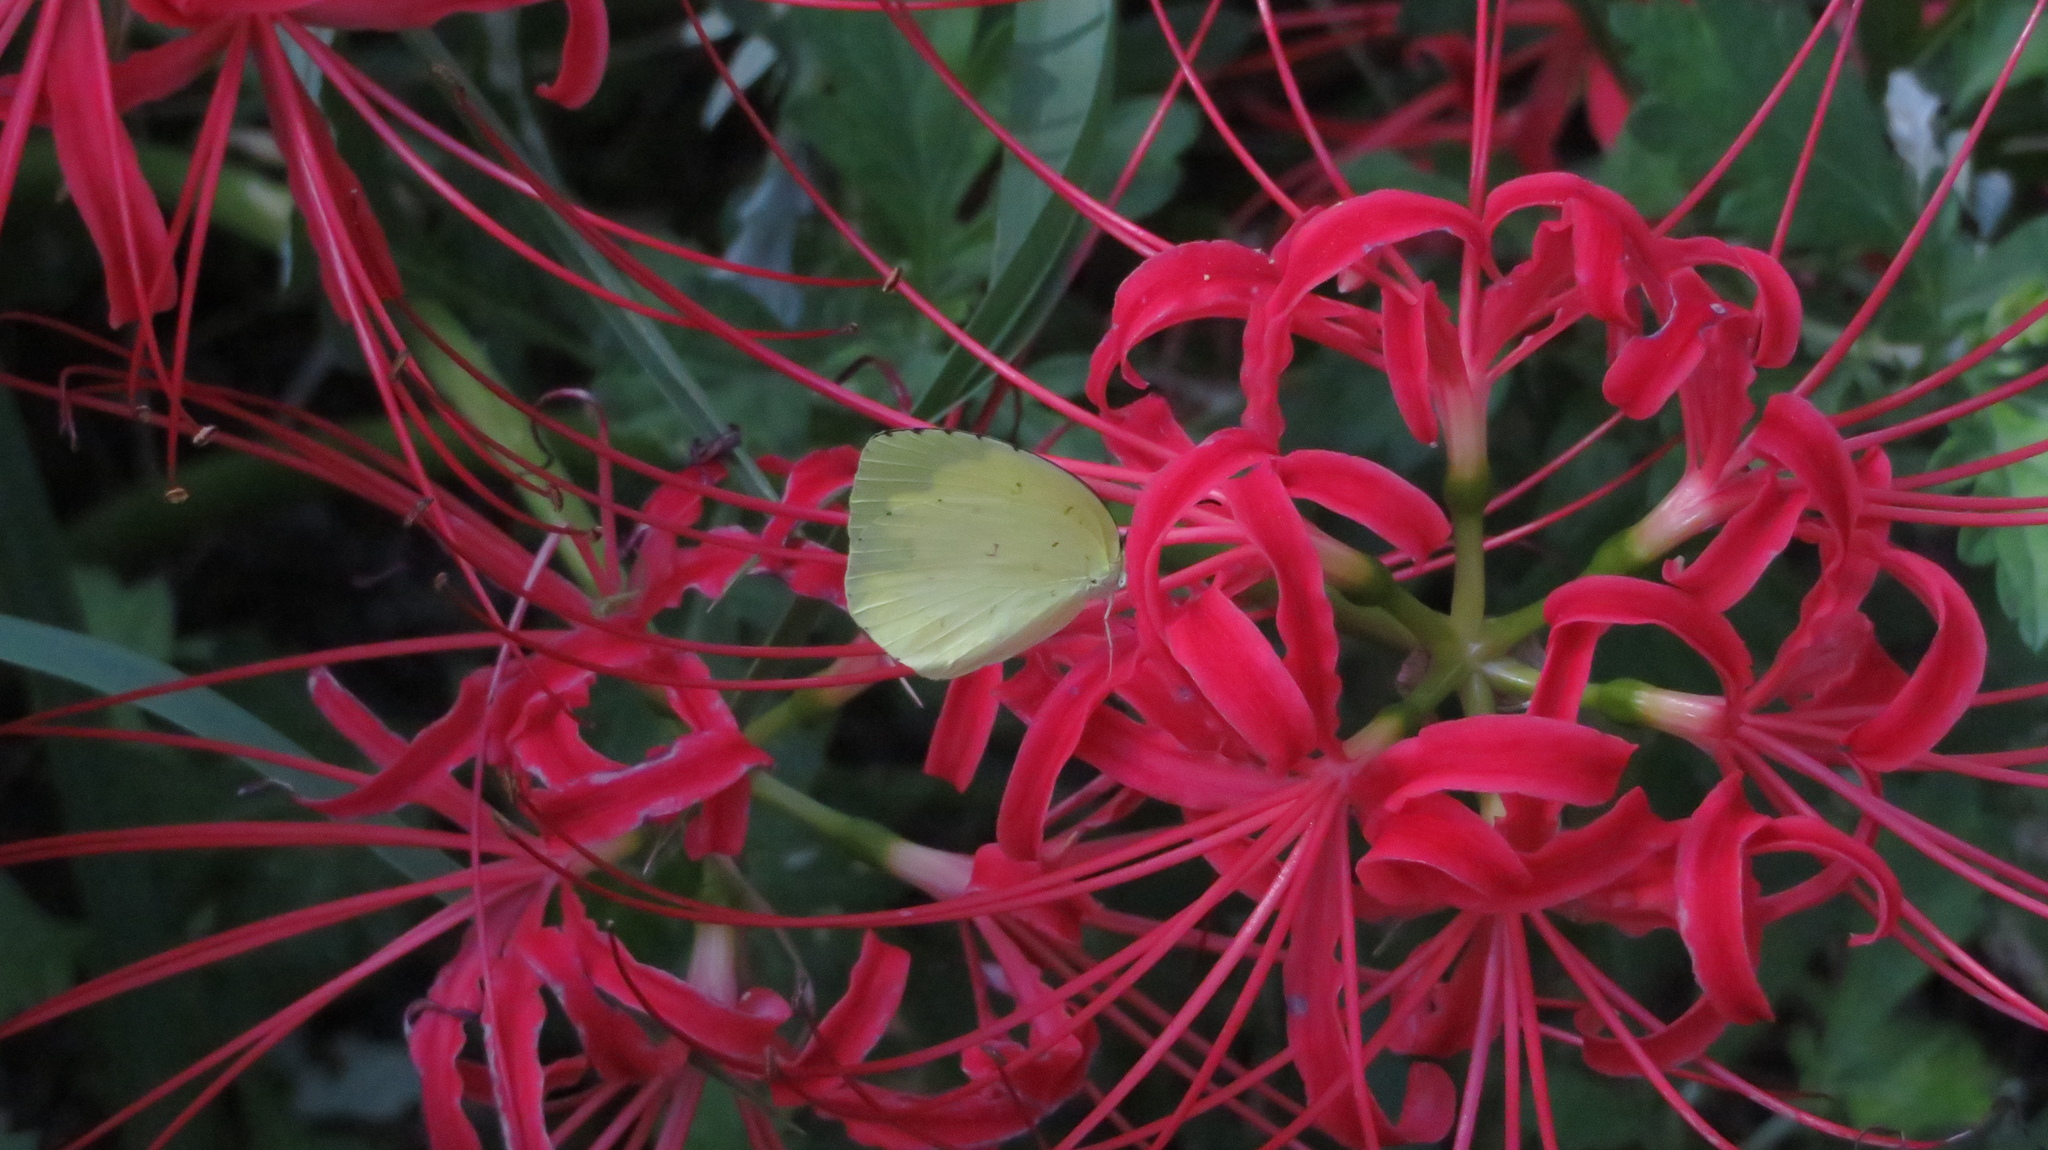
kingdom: Animalia
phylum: Arthropoda
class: Insecta
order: Lepidoptera
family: Pieridae
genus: Eurema
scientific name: Eurema mandarina
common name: Japanese common grass yellow
